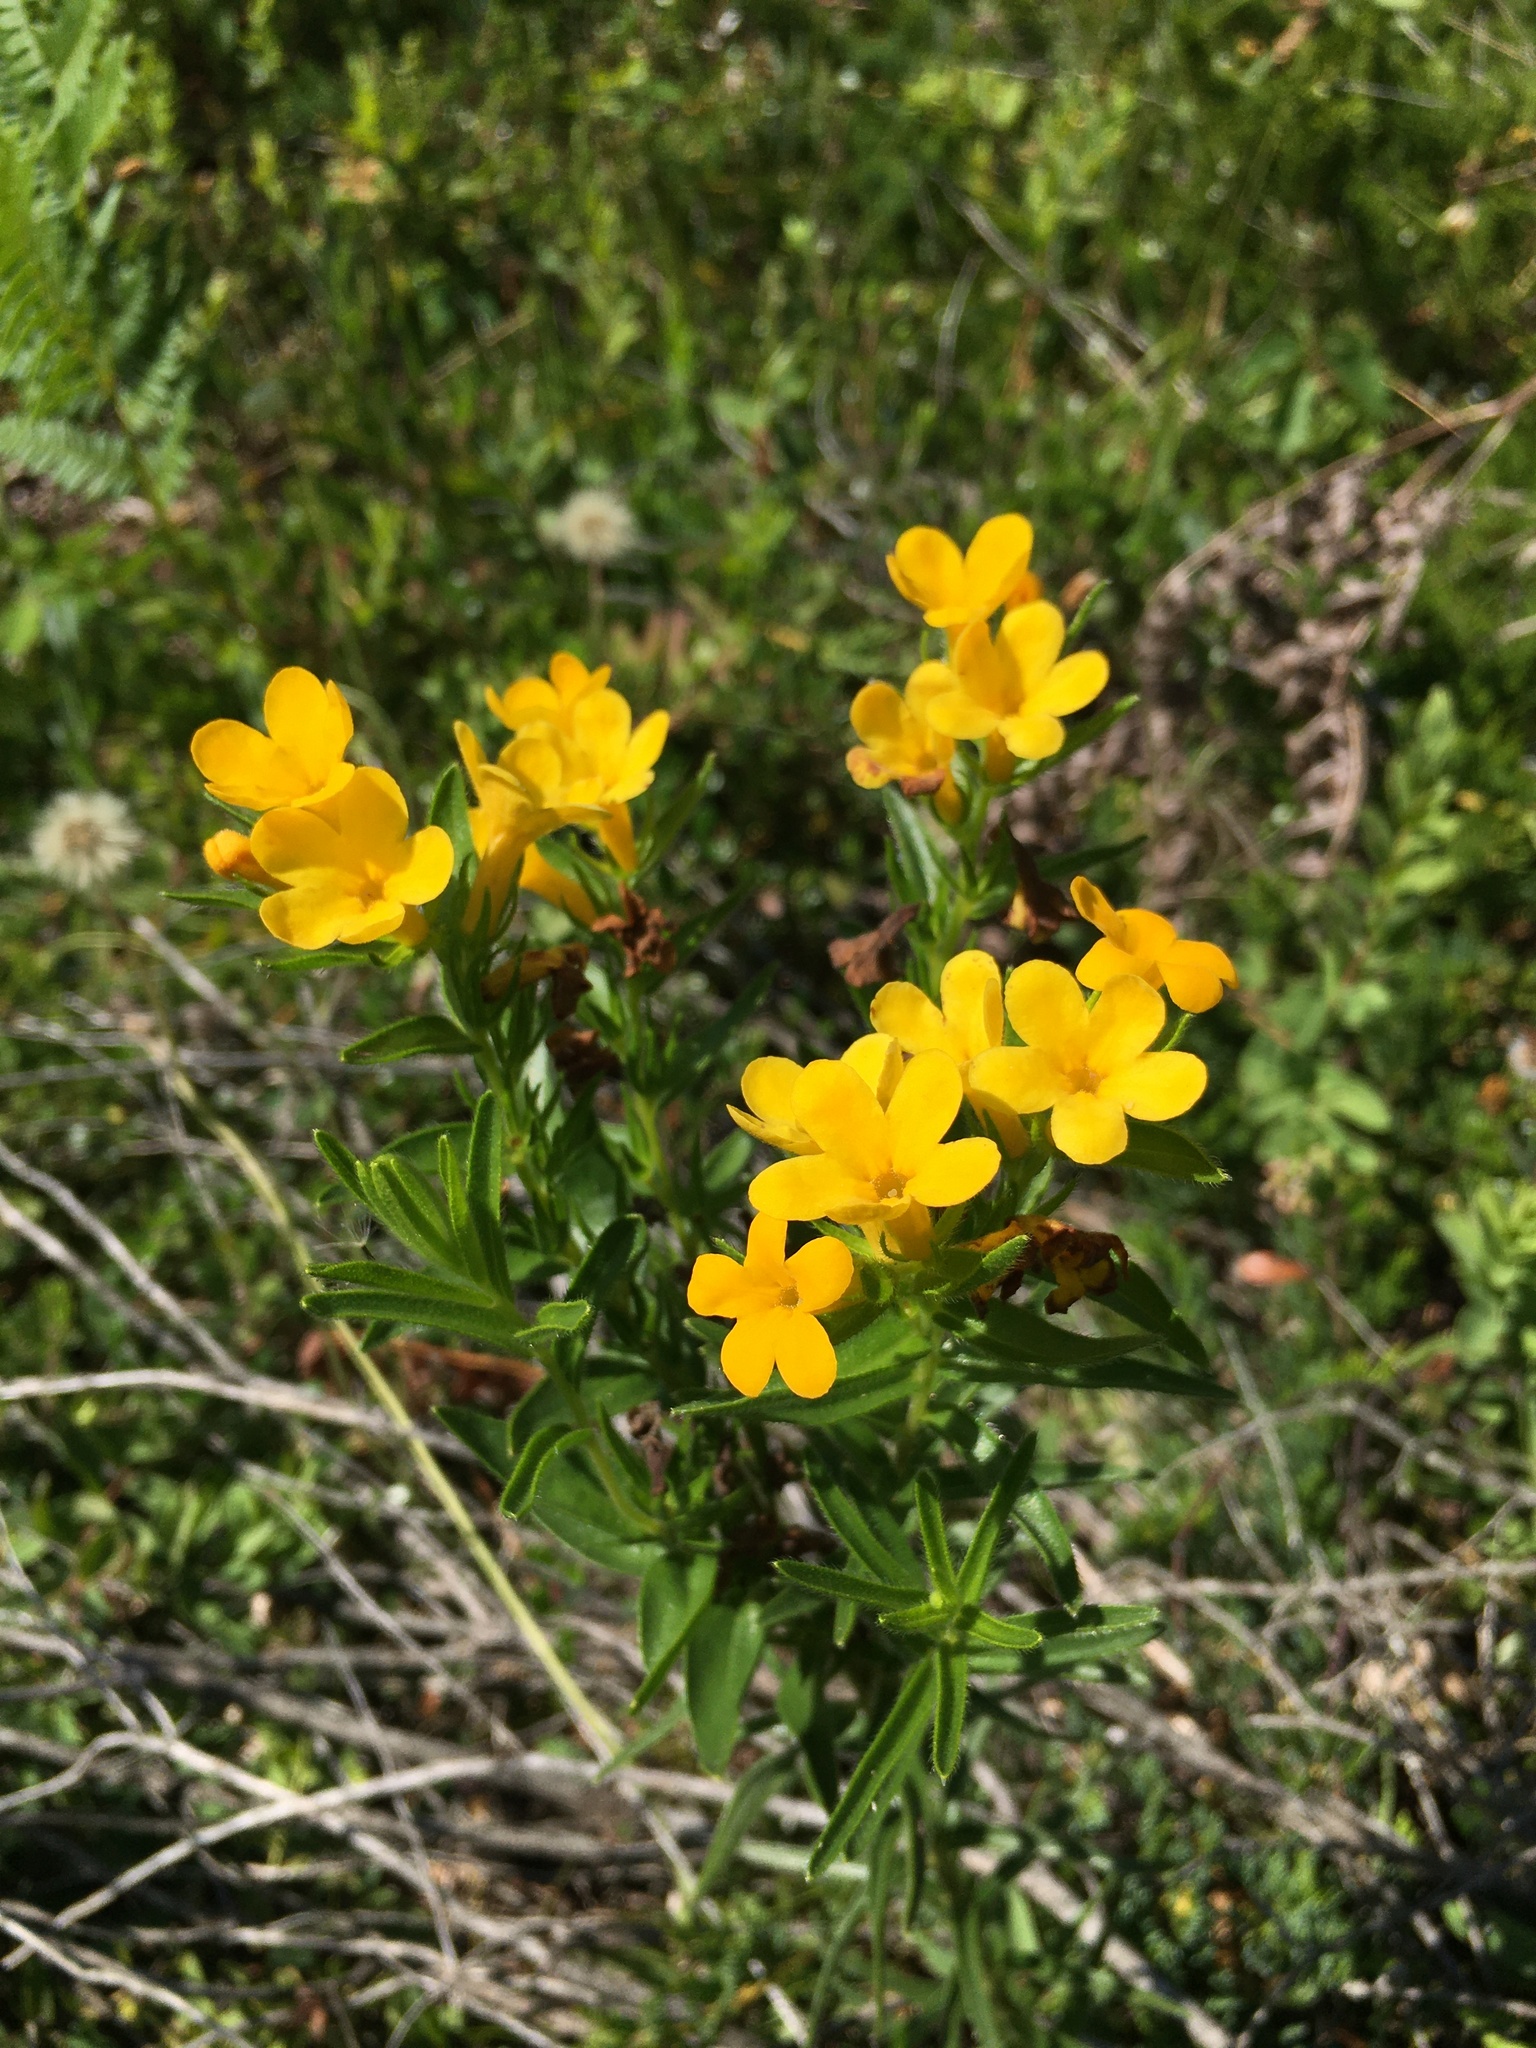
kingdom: Plantae
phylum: Tracheophyta
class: Magnoliopsida
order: Boraginales
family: Boraginaceae
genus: Lithospermum
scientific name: Lithospermum caroliniense
